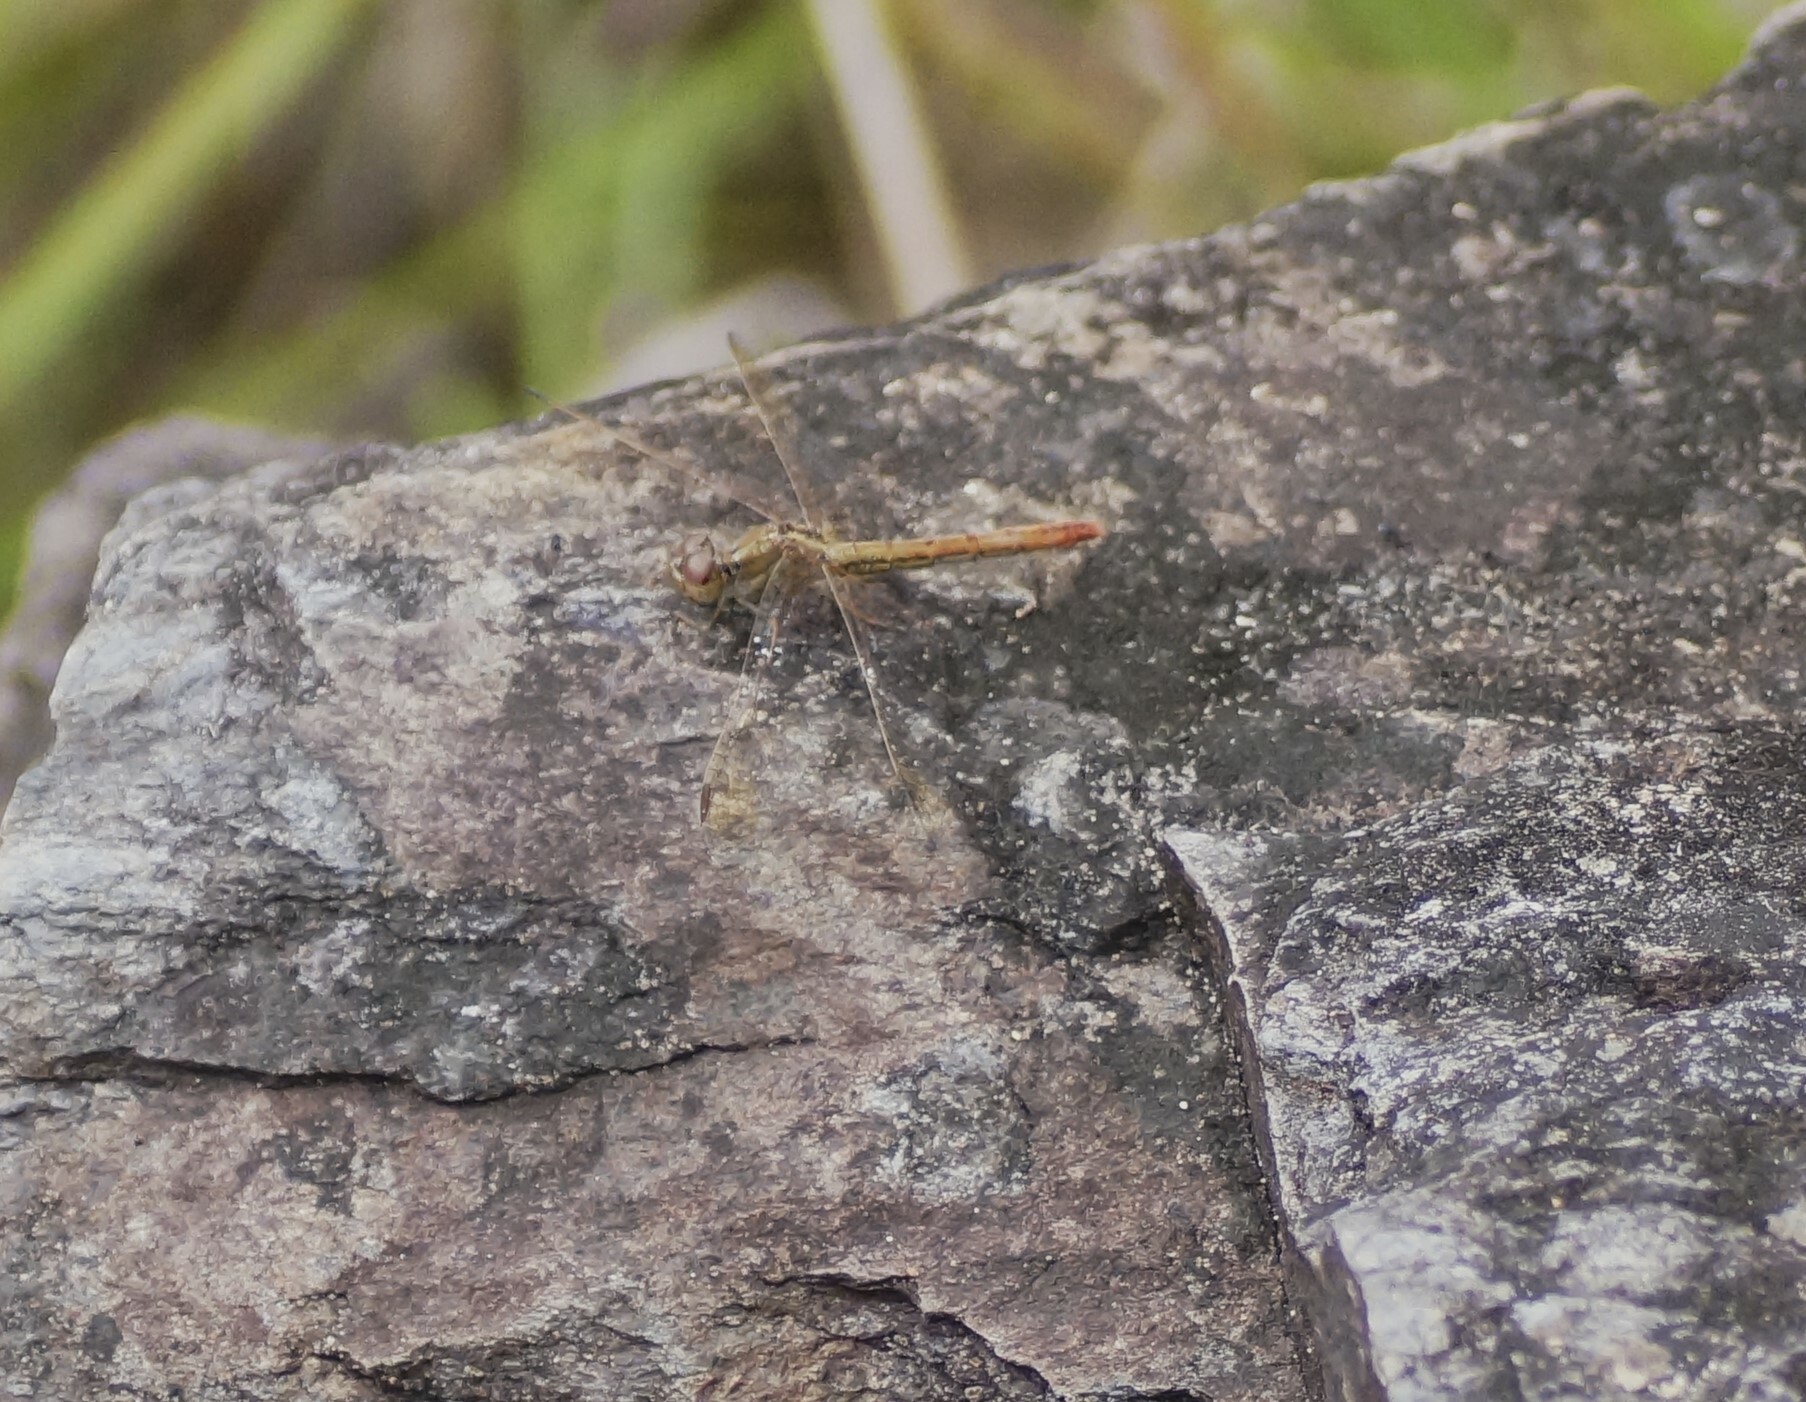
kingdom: Animalia
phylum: Arthropoda
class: Insecta
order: Odonata
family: Libellulidae
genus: Diplacodes
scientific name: Diplacodes haematodes
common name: Scarlet percher
